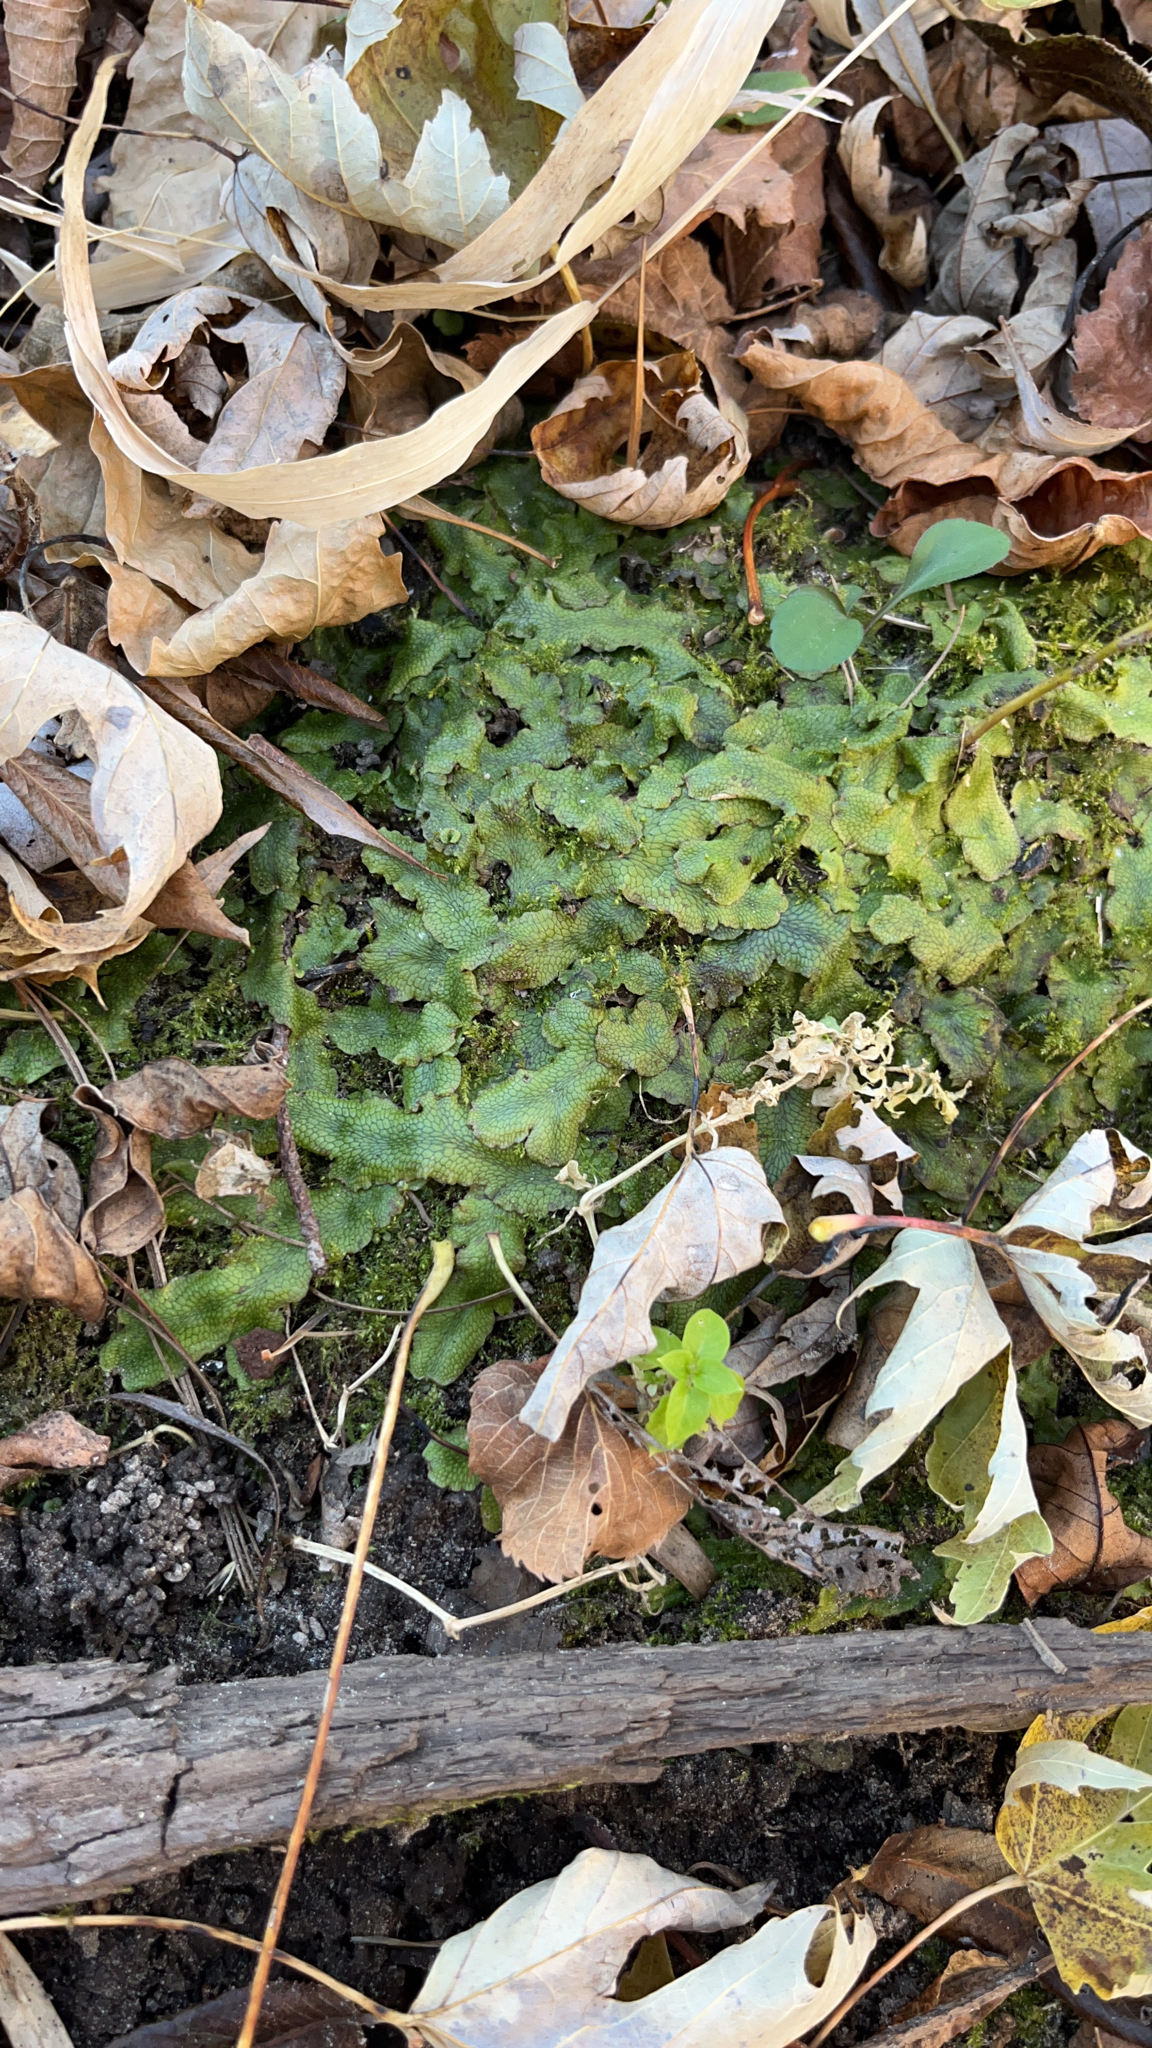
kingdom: Plantae
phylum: Marchantiophyta
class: Marchantiopsida
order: Marchantiales
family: Conocephalaceae
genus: Conocephalum
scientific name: Conocephalum salebrosum
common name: Cat-tongue liverwort
